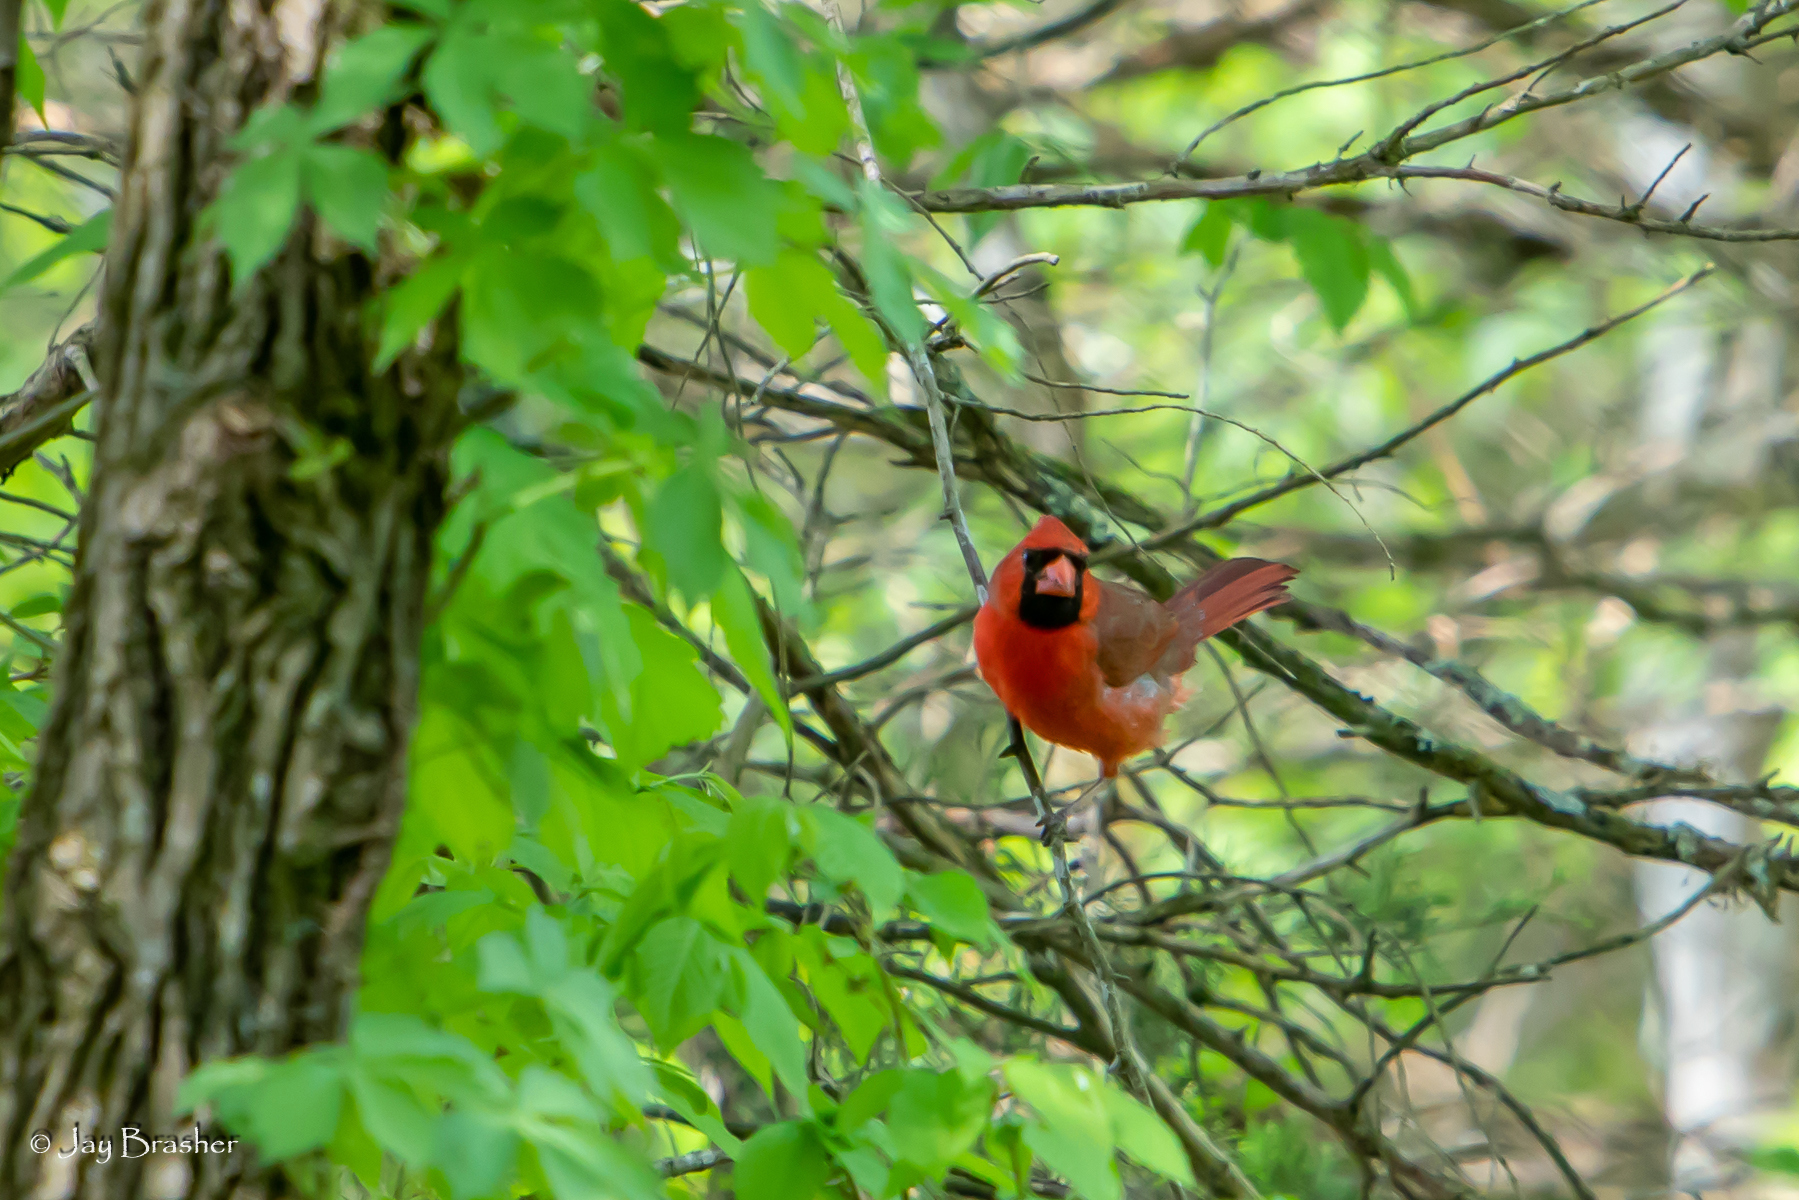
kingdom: Animalia
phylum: Chordata
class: Aves
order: Passeriformes
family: Cardinalidae
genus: Cardinalis
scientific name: Cardinalis cardinalis
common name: Northern cardinal
